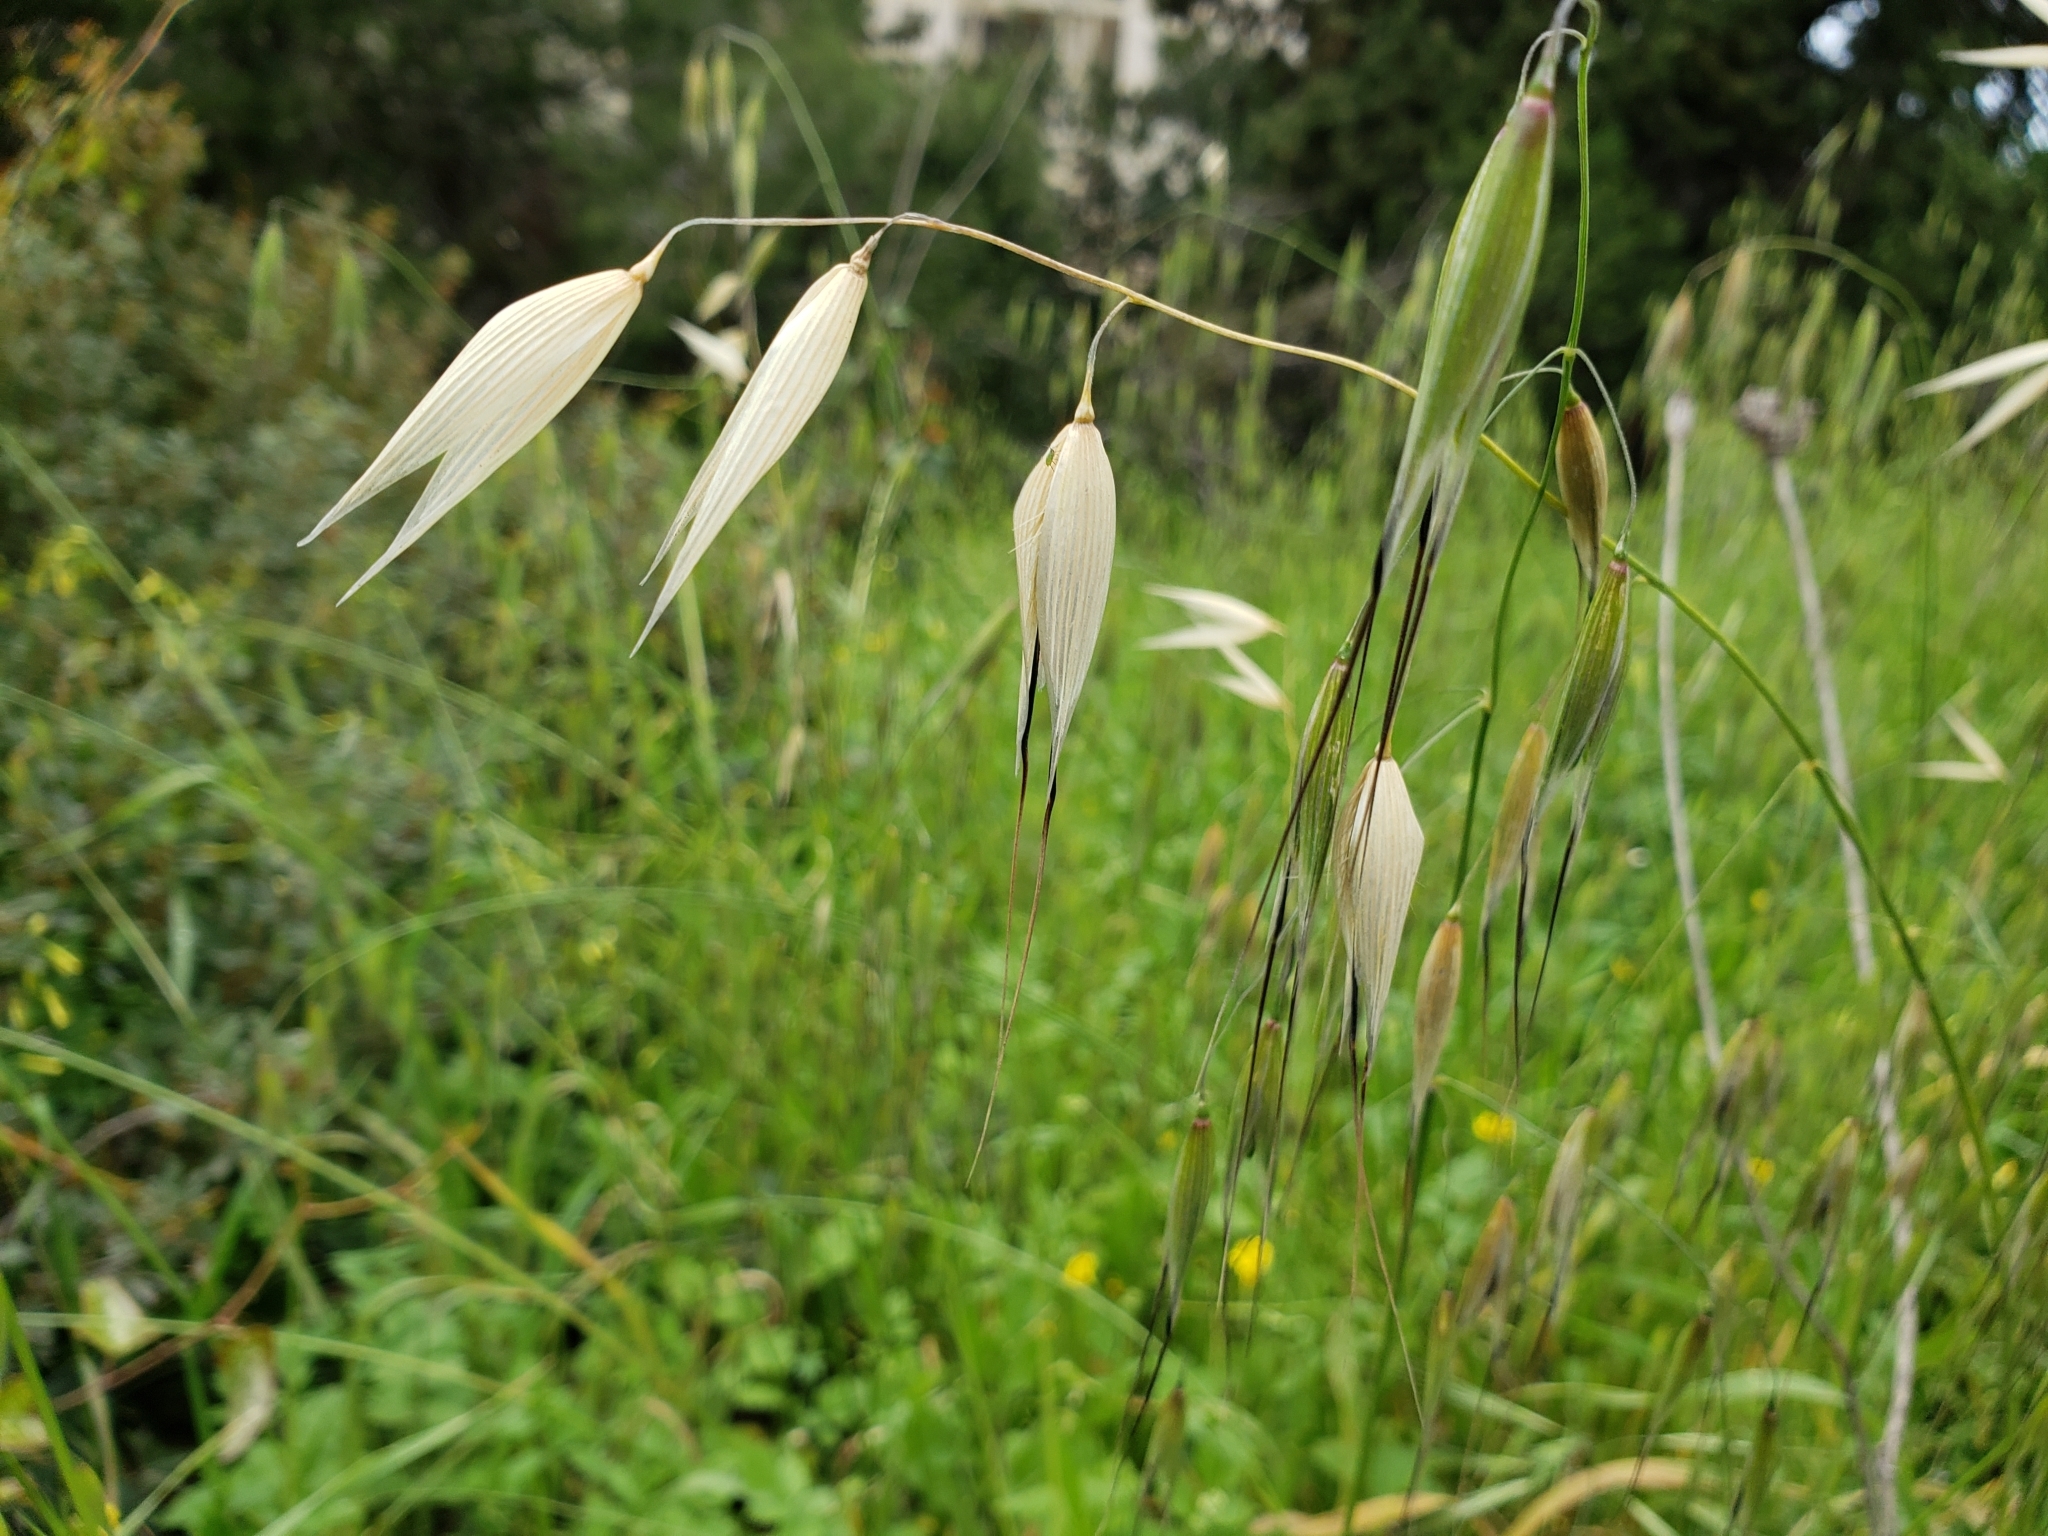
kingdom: Plantae
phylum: Tracheophyta
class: Liliopsida
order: Poales
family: Poaceae
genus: Avena
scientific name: Avena sterilis
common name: Animated oat
